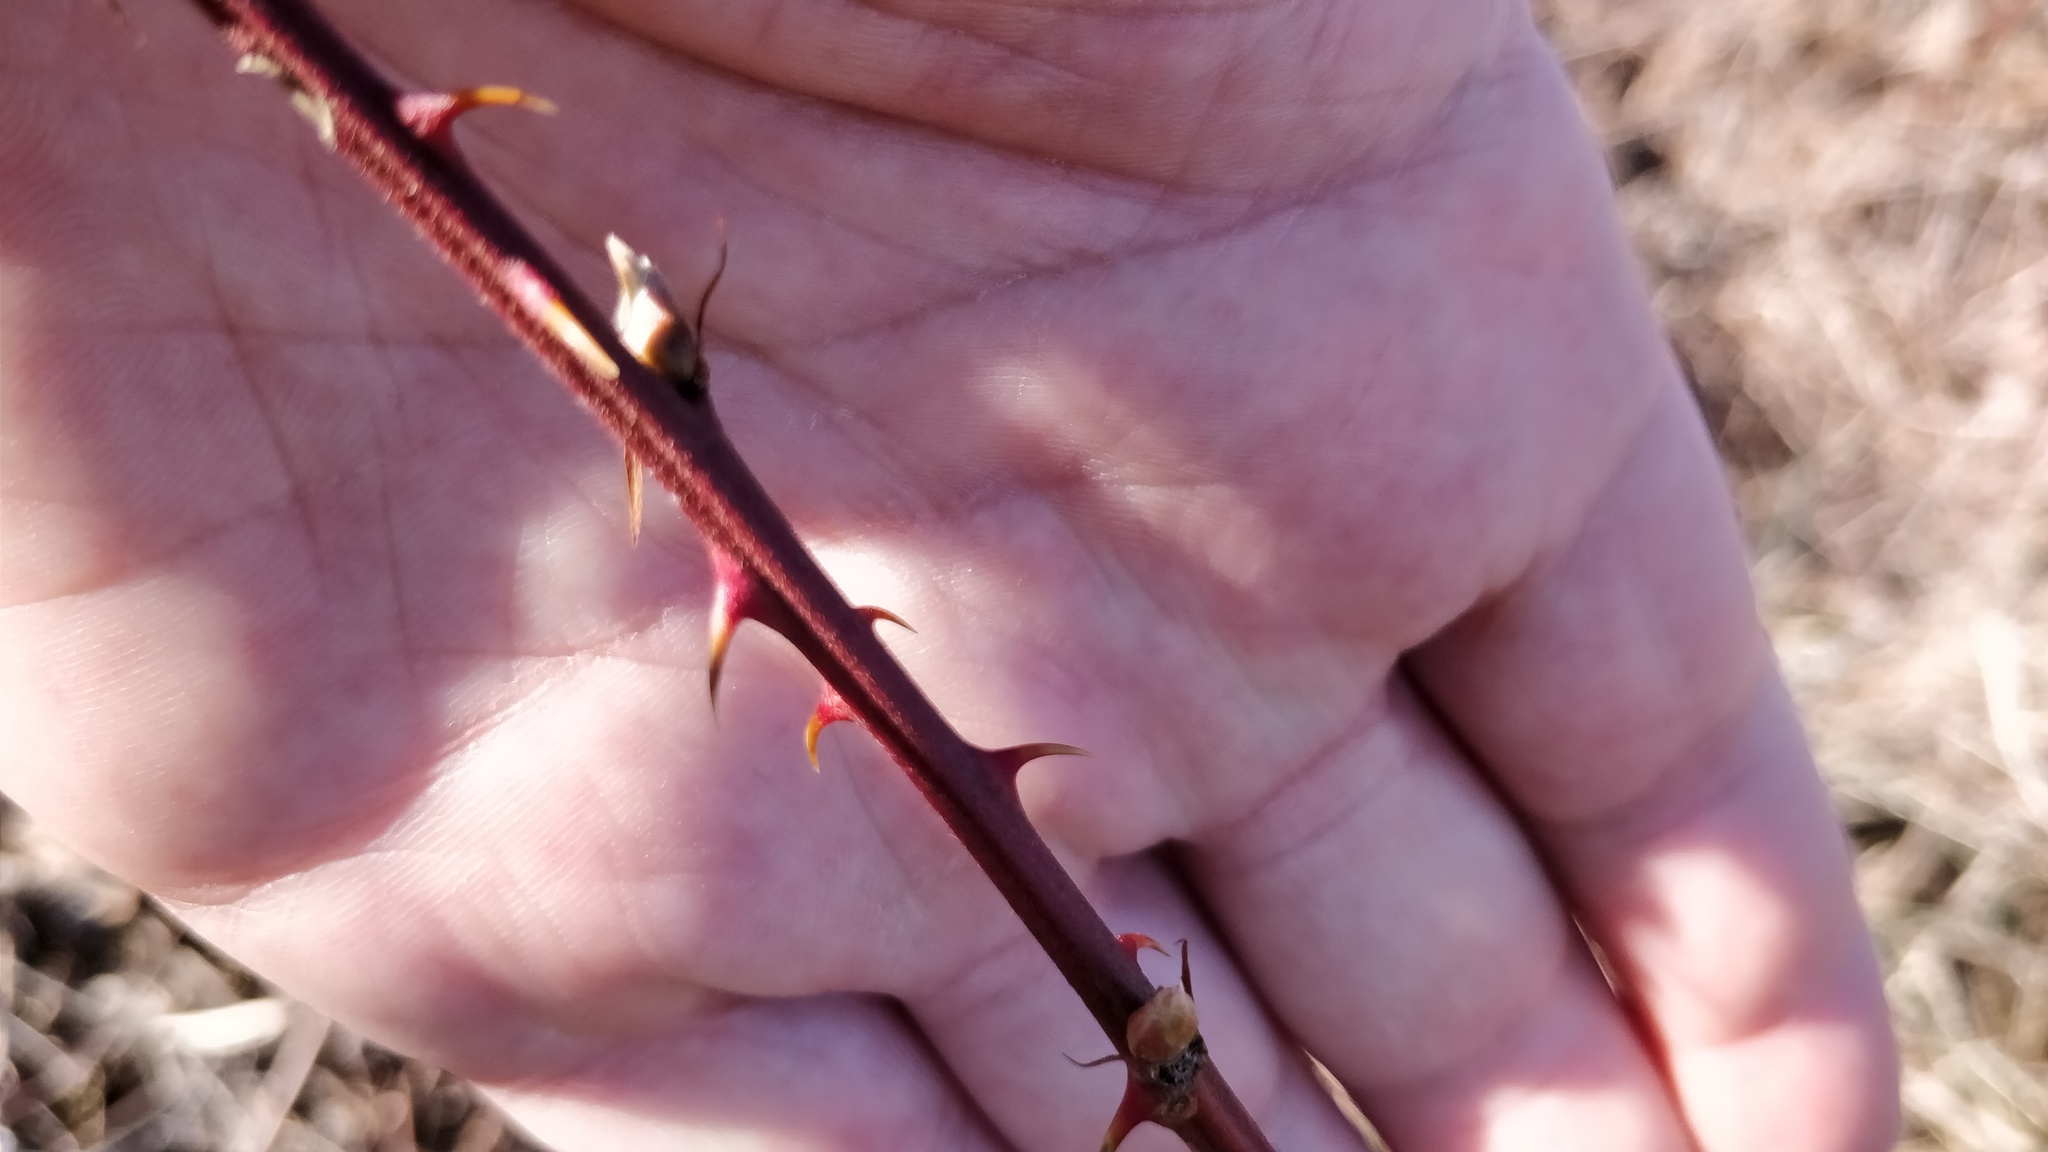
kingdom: Plantae
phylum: Tracheophyta
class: Magnoliopsida
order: Rosales
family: Rosaceae
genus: Rubus
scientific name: Rubus allegheniensis
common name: Allegheny blackberry
